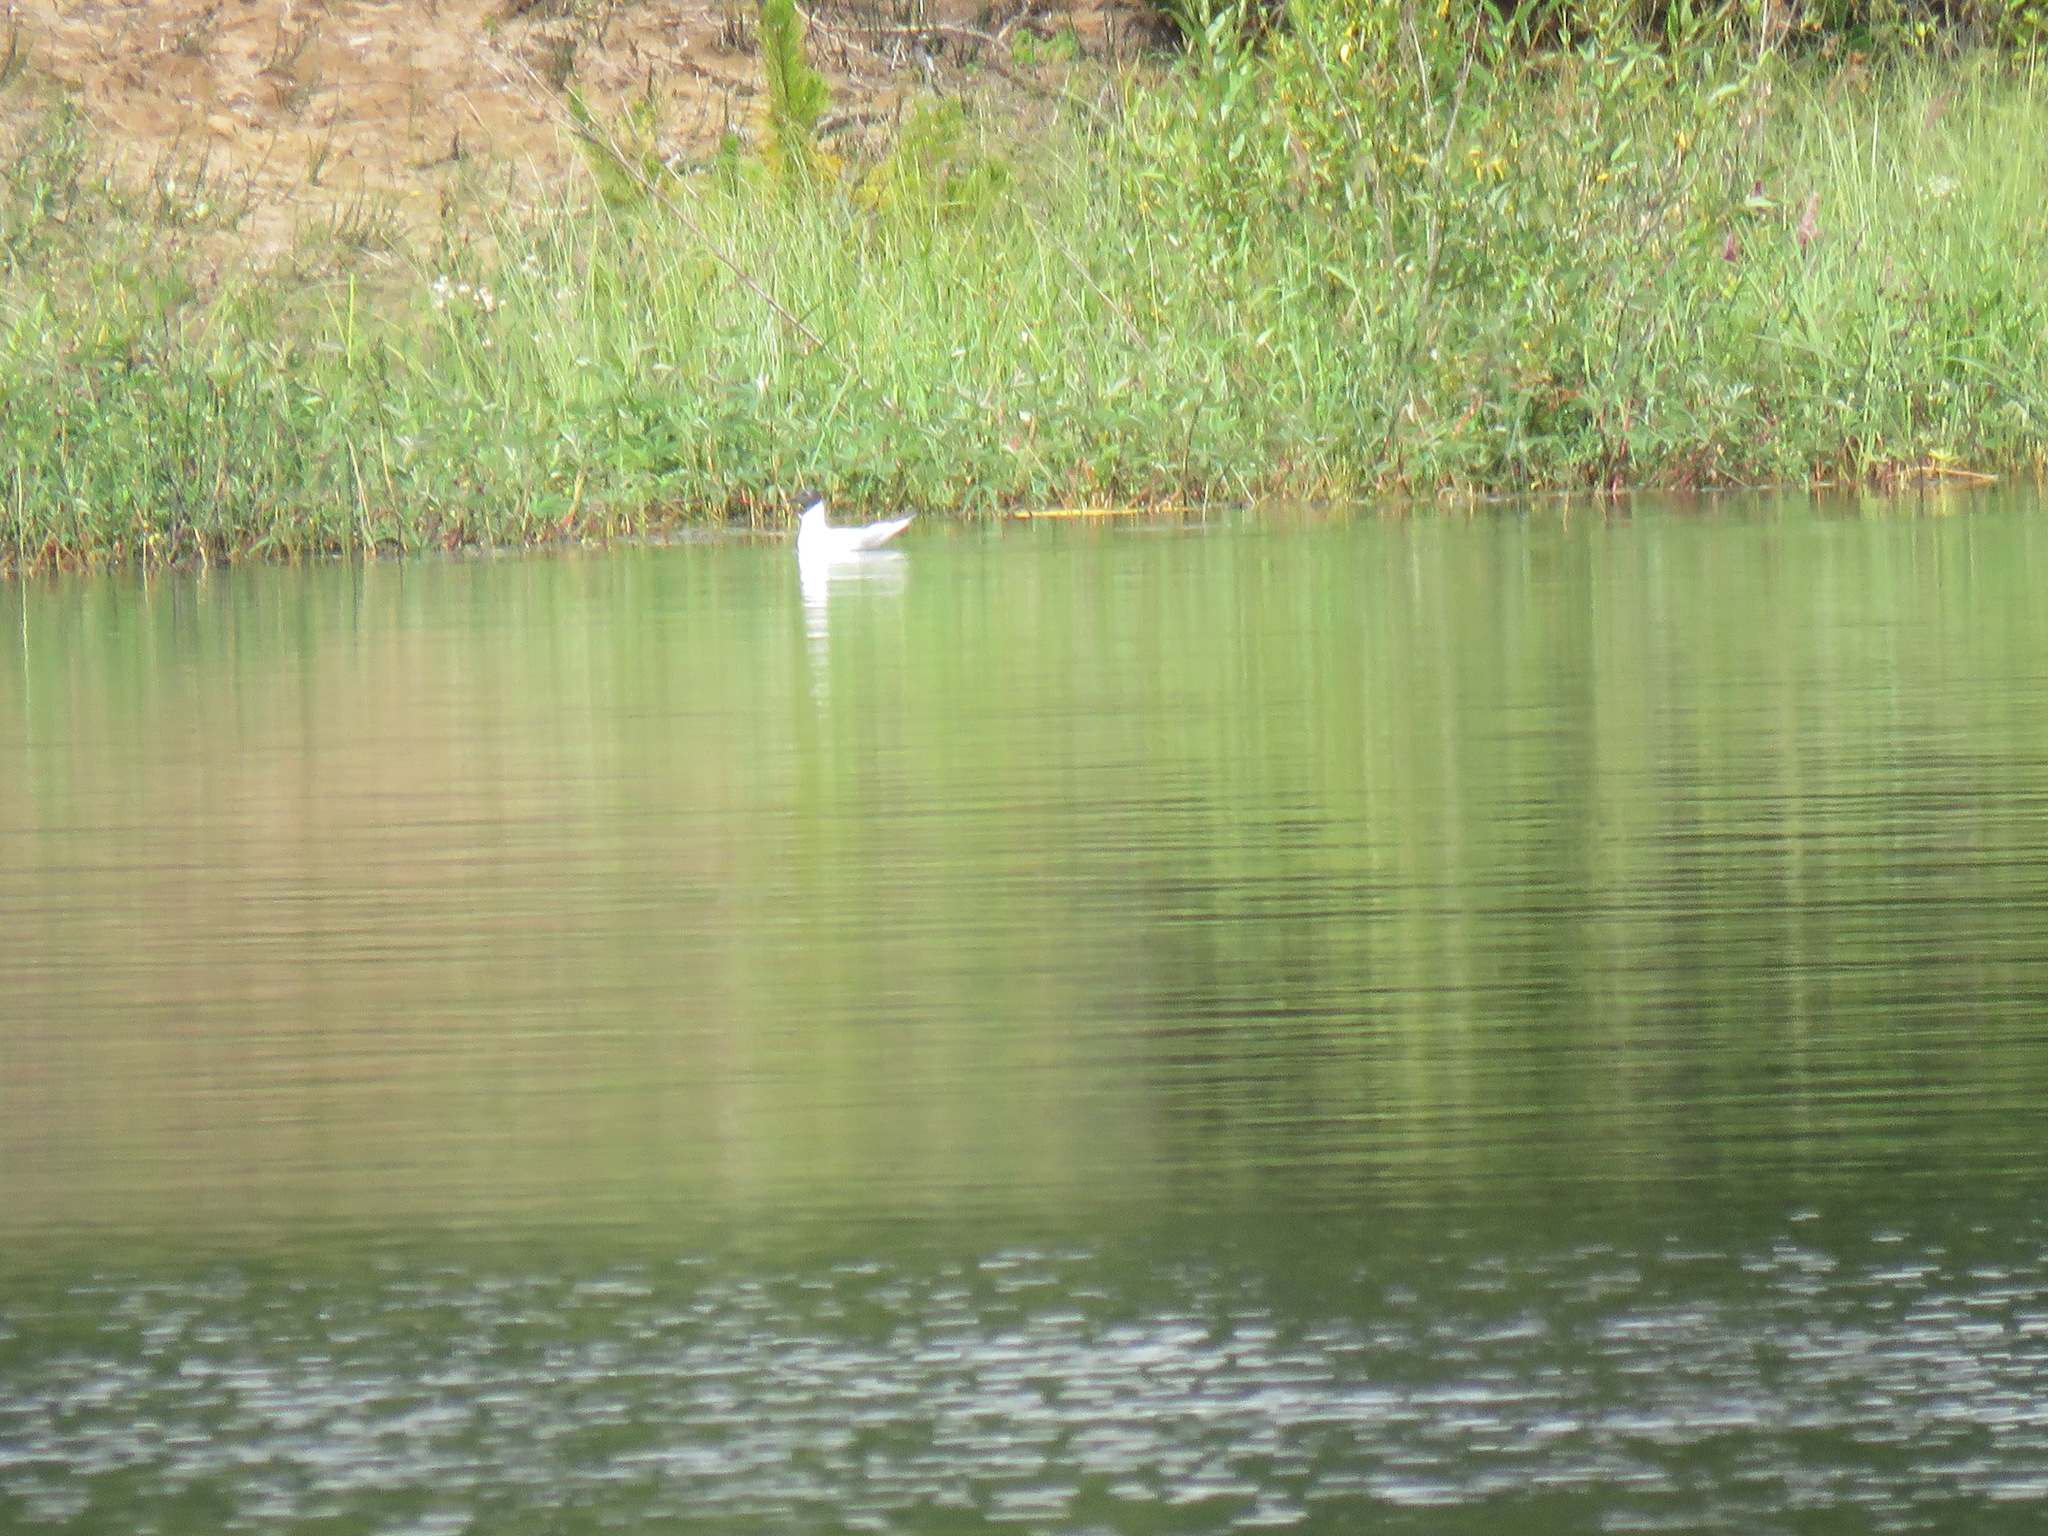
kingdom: Animalia
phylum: Chordata
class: Aves
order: Charadriiformes
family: Laridae
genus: Chroicocephalus
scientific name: Chroicocephalus philadelphia
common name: Bonaparte's gull
